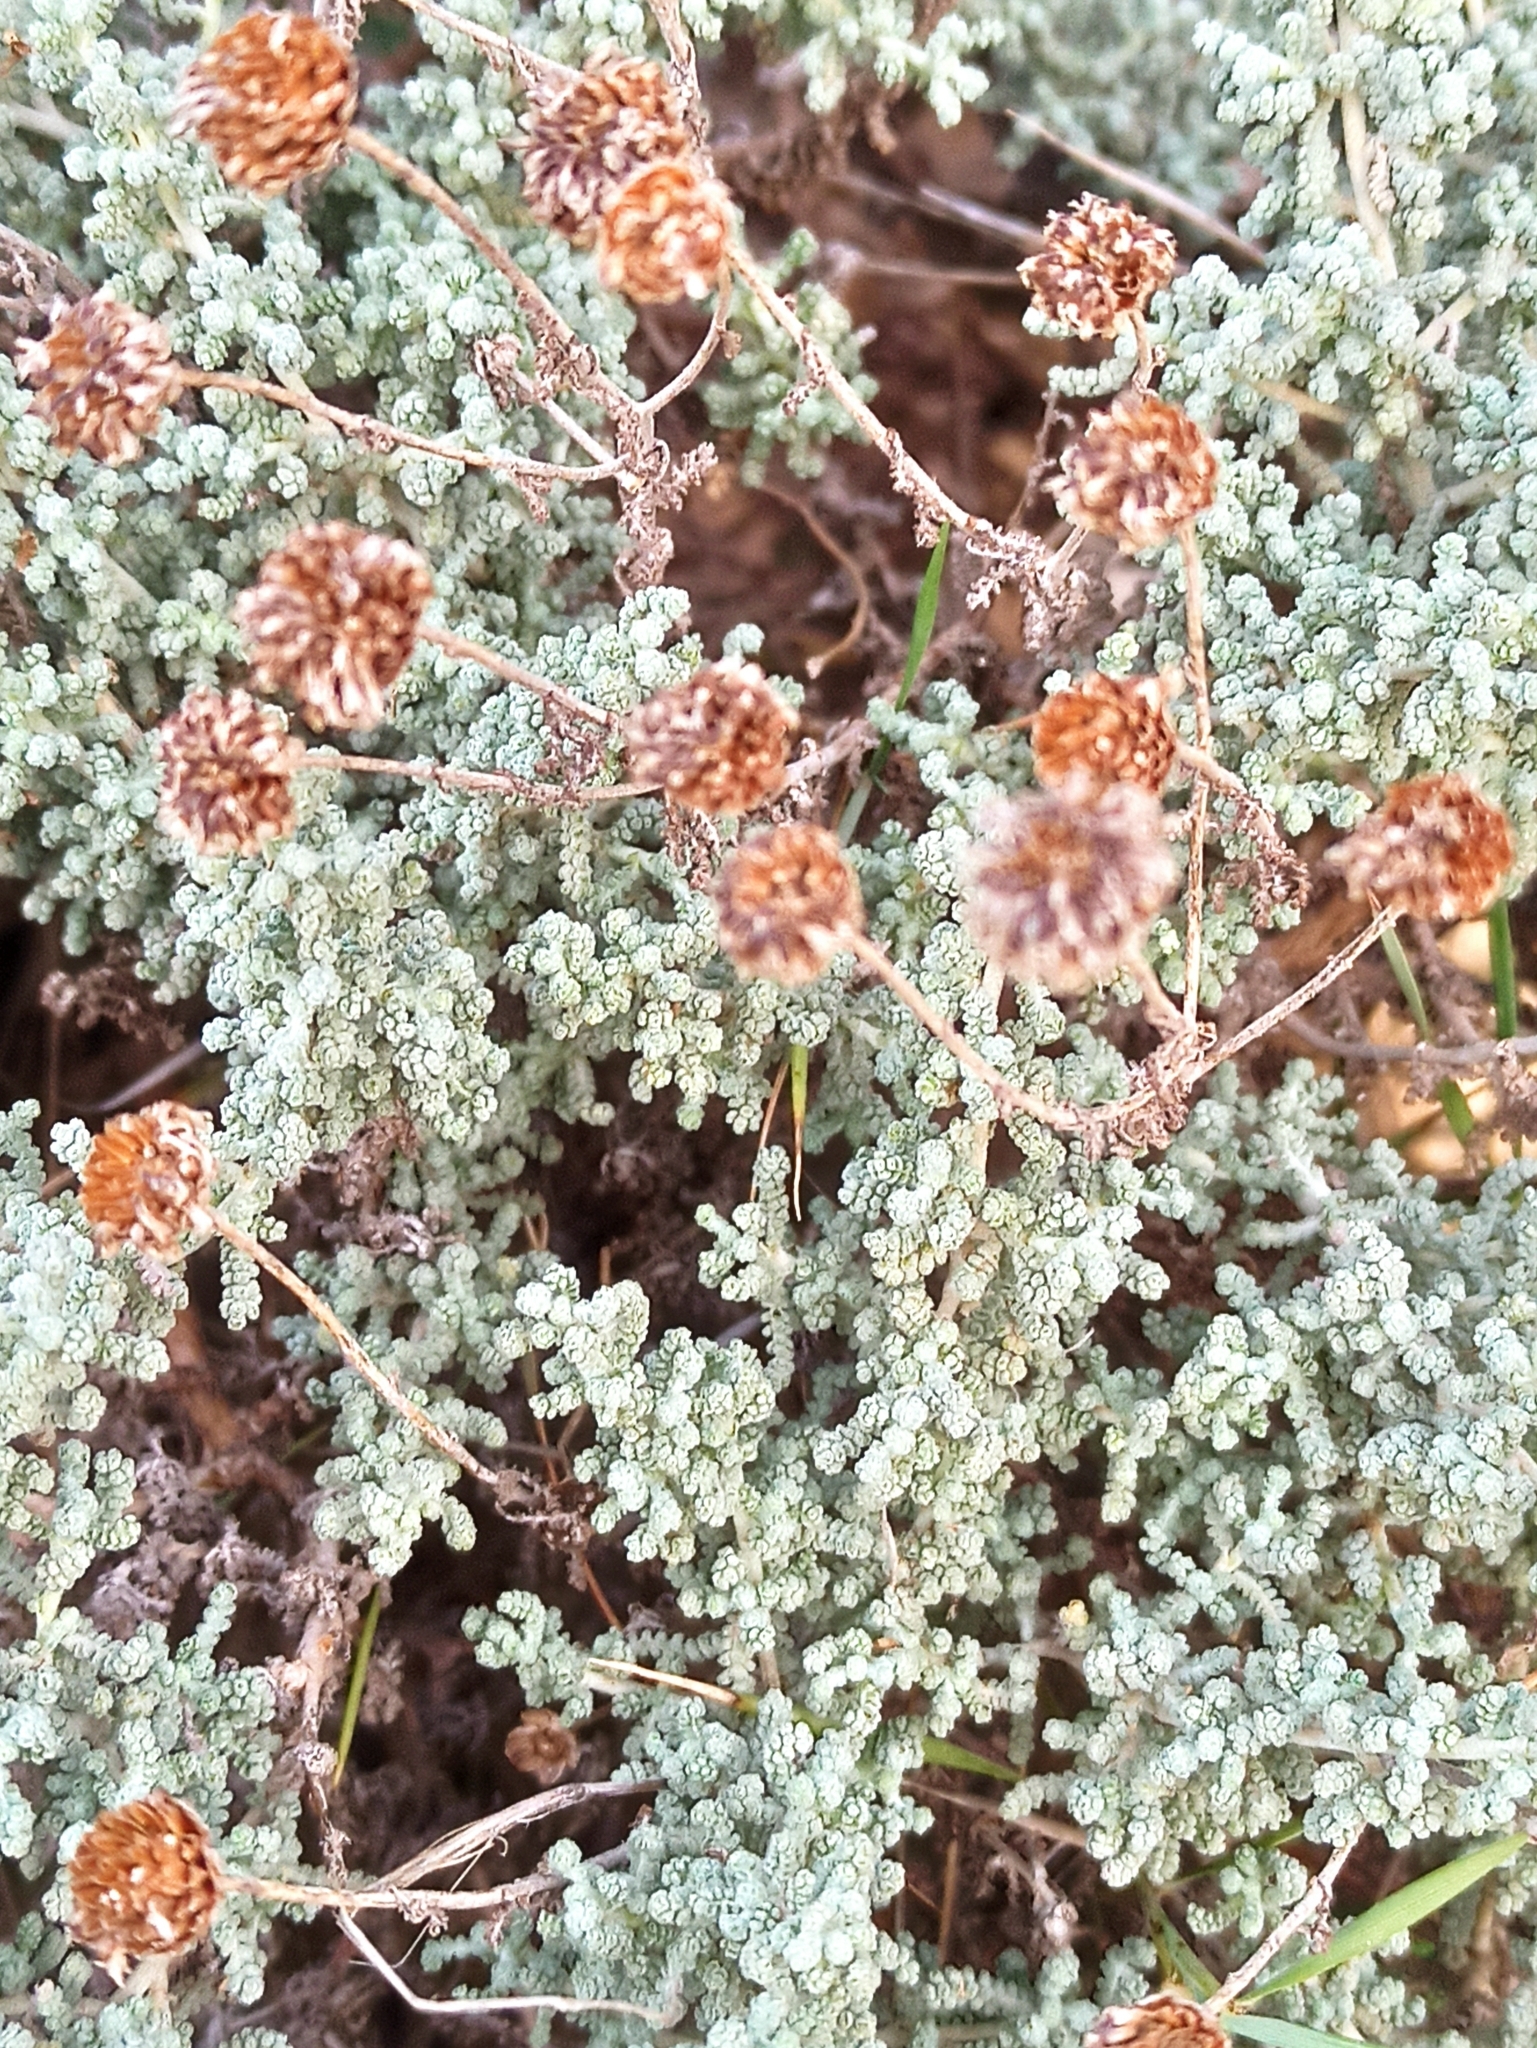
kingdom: Plantae
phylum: Tracheophyta
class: Magnoliopsida
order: Asterales
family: Asteraceae
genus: Santolina
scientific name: Santolina magonica
